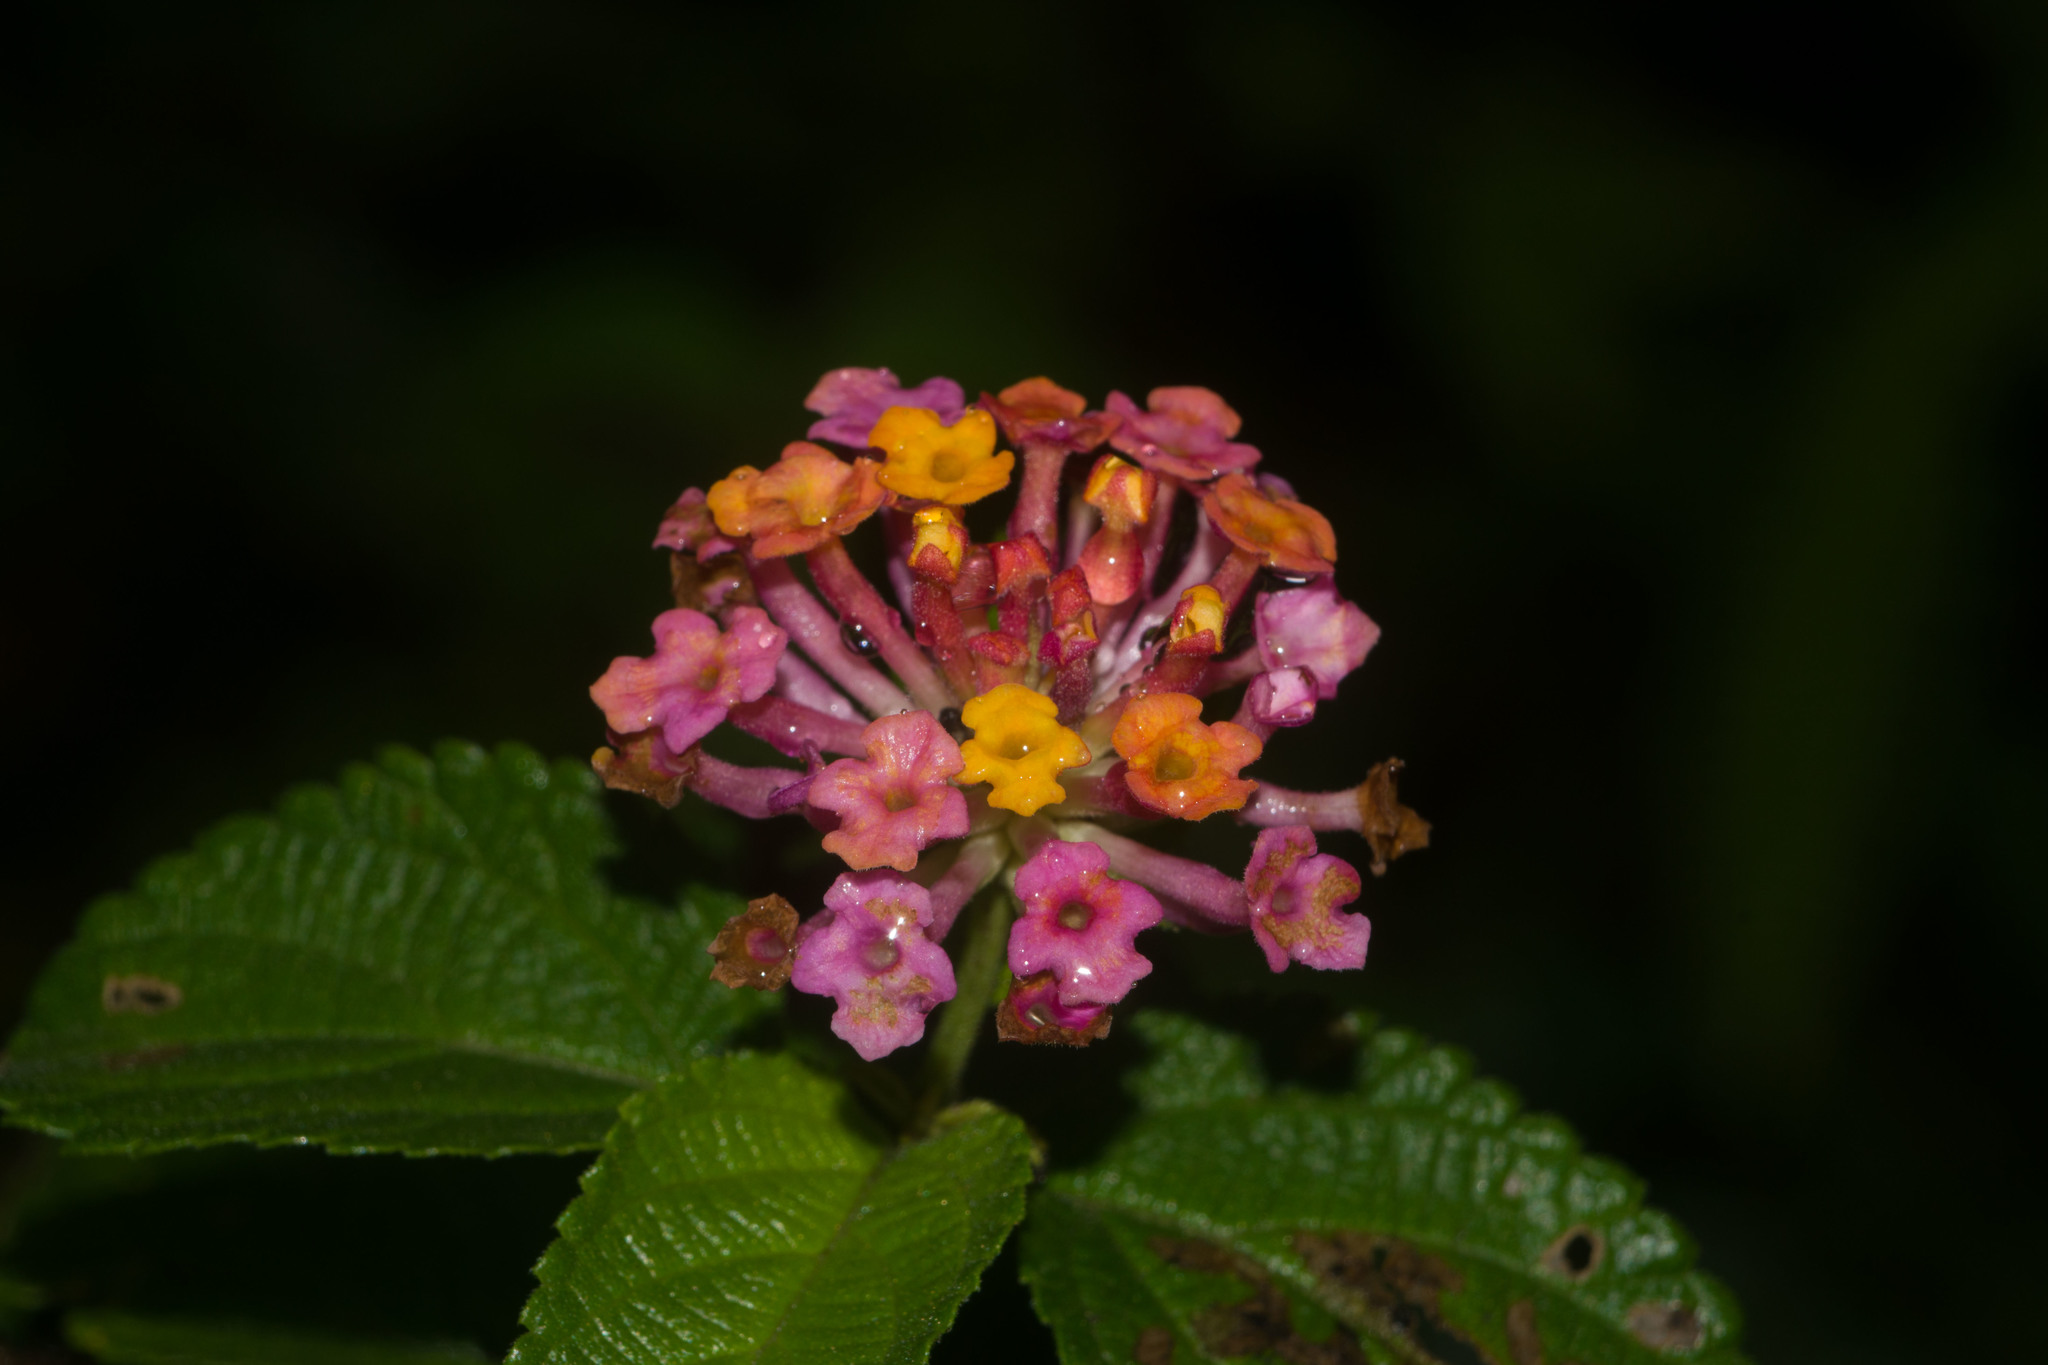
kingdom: Plantae
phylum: Tracheophyta
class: Magnoliopsida
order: Lamiales
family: Verbenaceae
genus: Lantana
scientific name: Lantana camara
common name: Lantana
